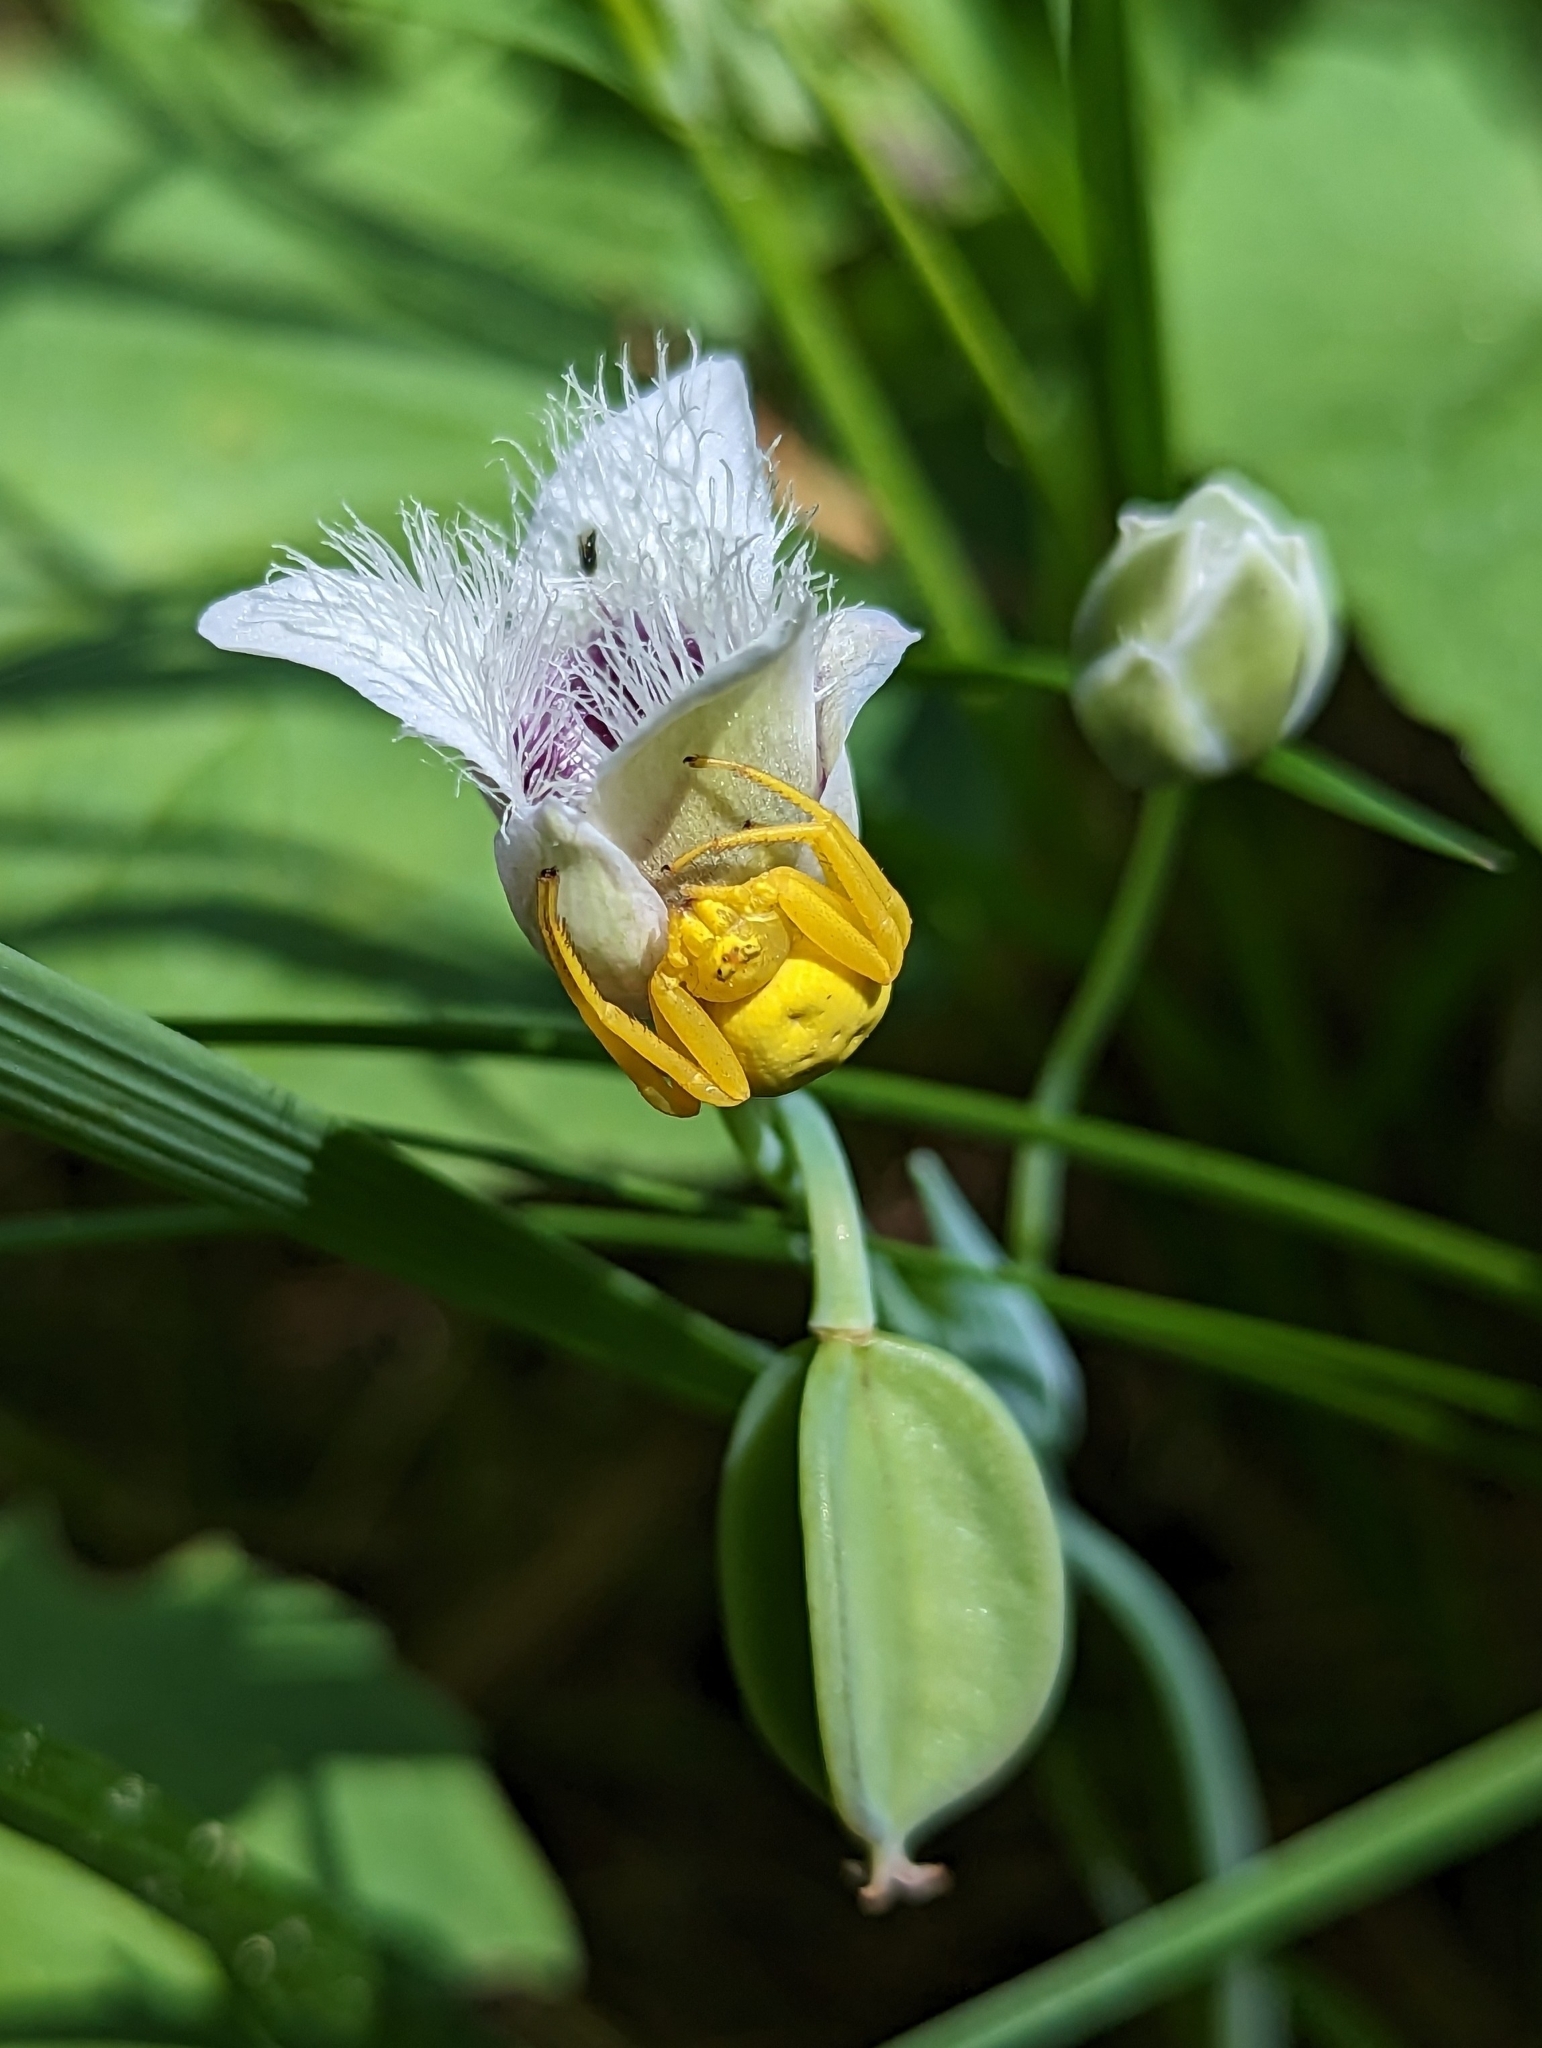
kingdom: Animalia
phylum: Arthropoda
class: Arachnida
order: Araneae
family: Thomisidae
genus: Misumena
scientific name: Misumena vatia
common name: Goldenrod crab spider
